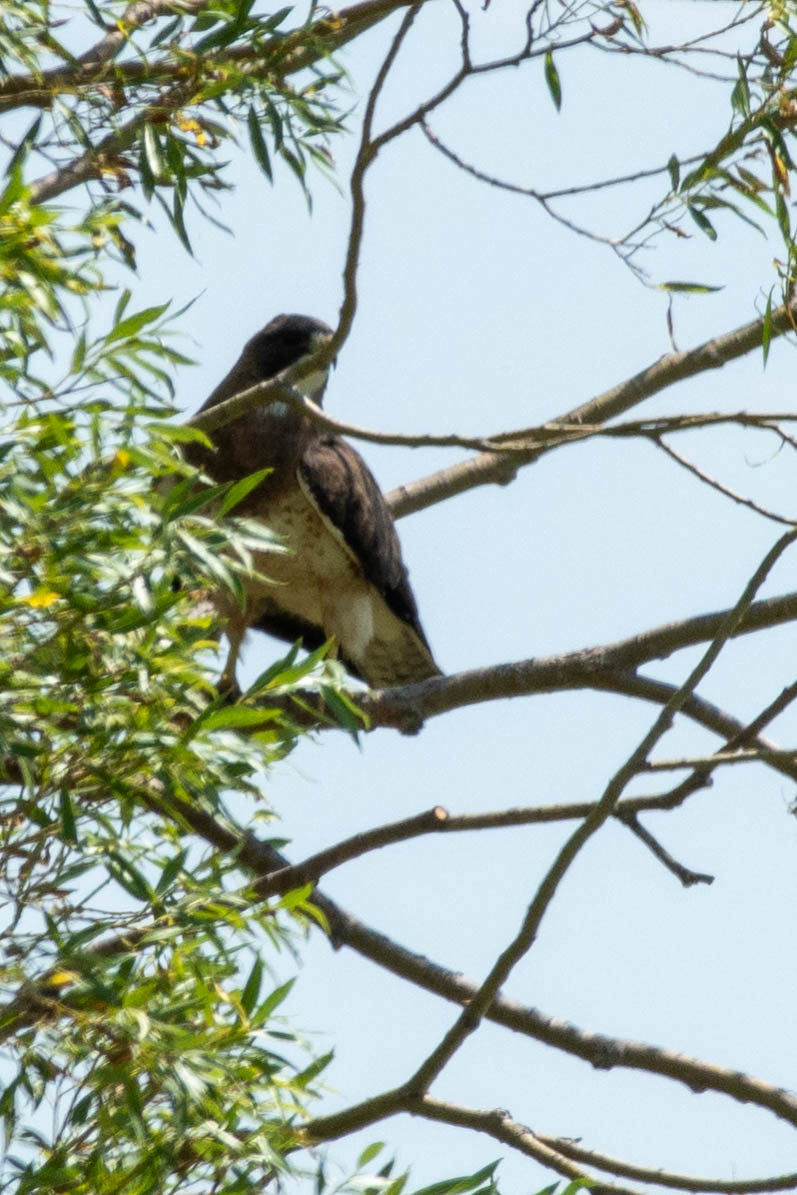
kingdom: Animalia
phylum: Chordata
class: Aves
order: Accipitriformes
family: Accipitridae
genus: Buteo
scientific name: Buteo swainsoni
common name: Swainson's hawk
